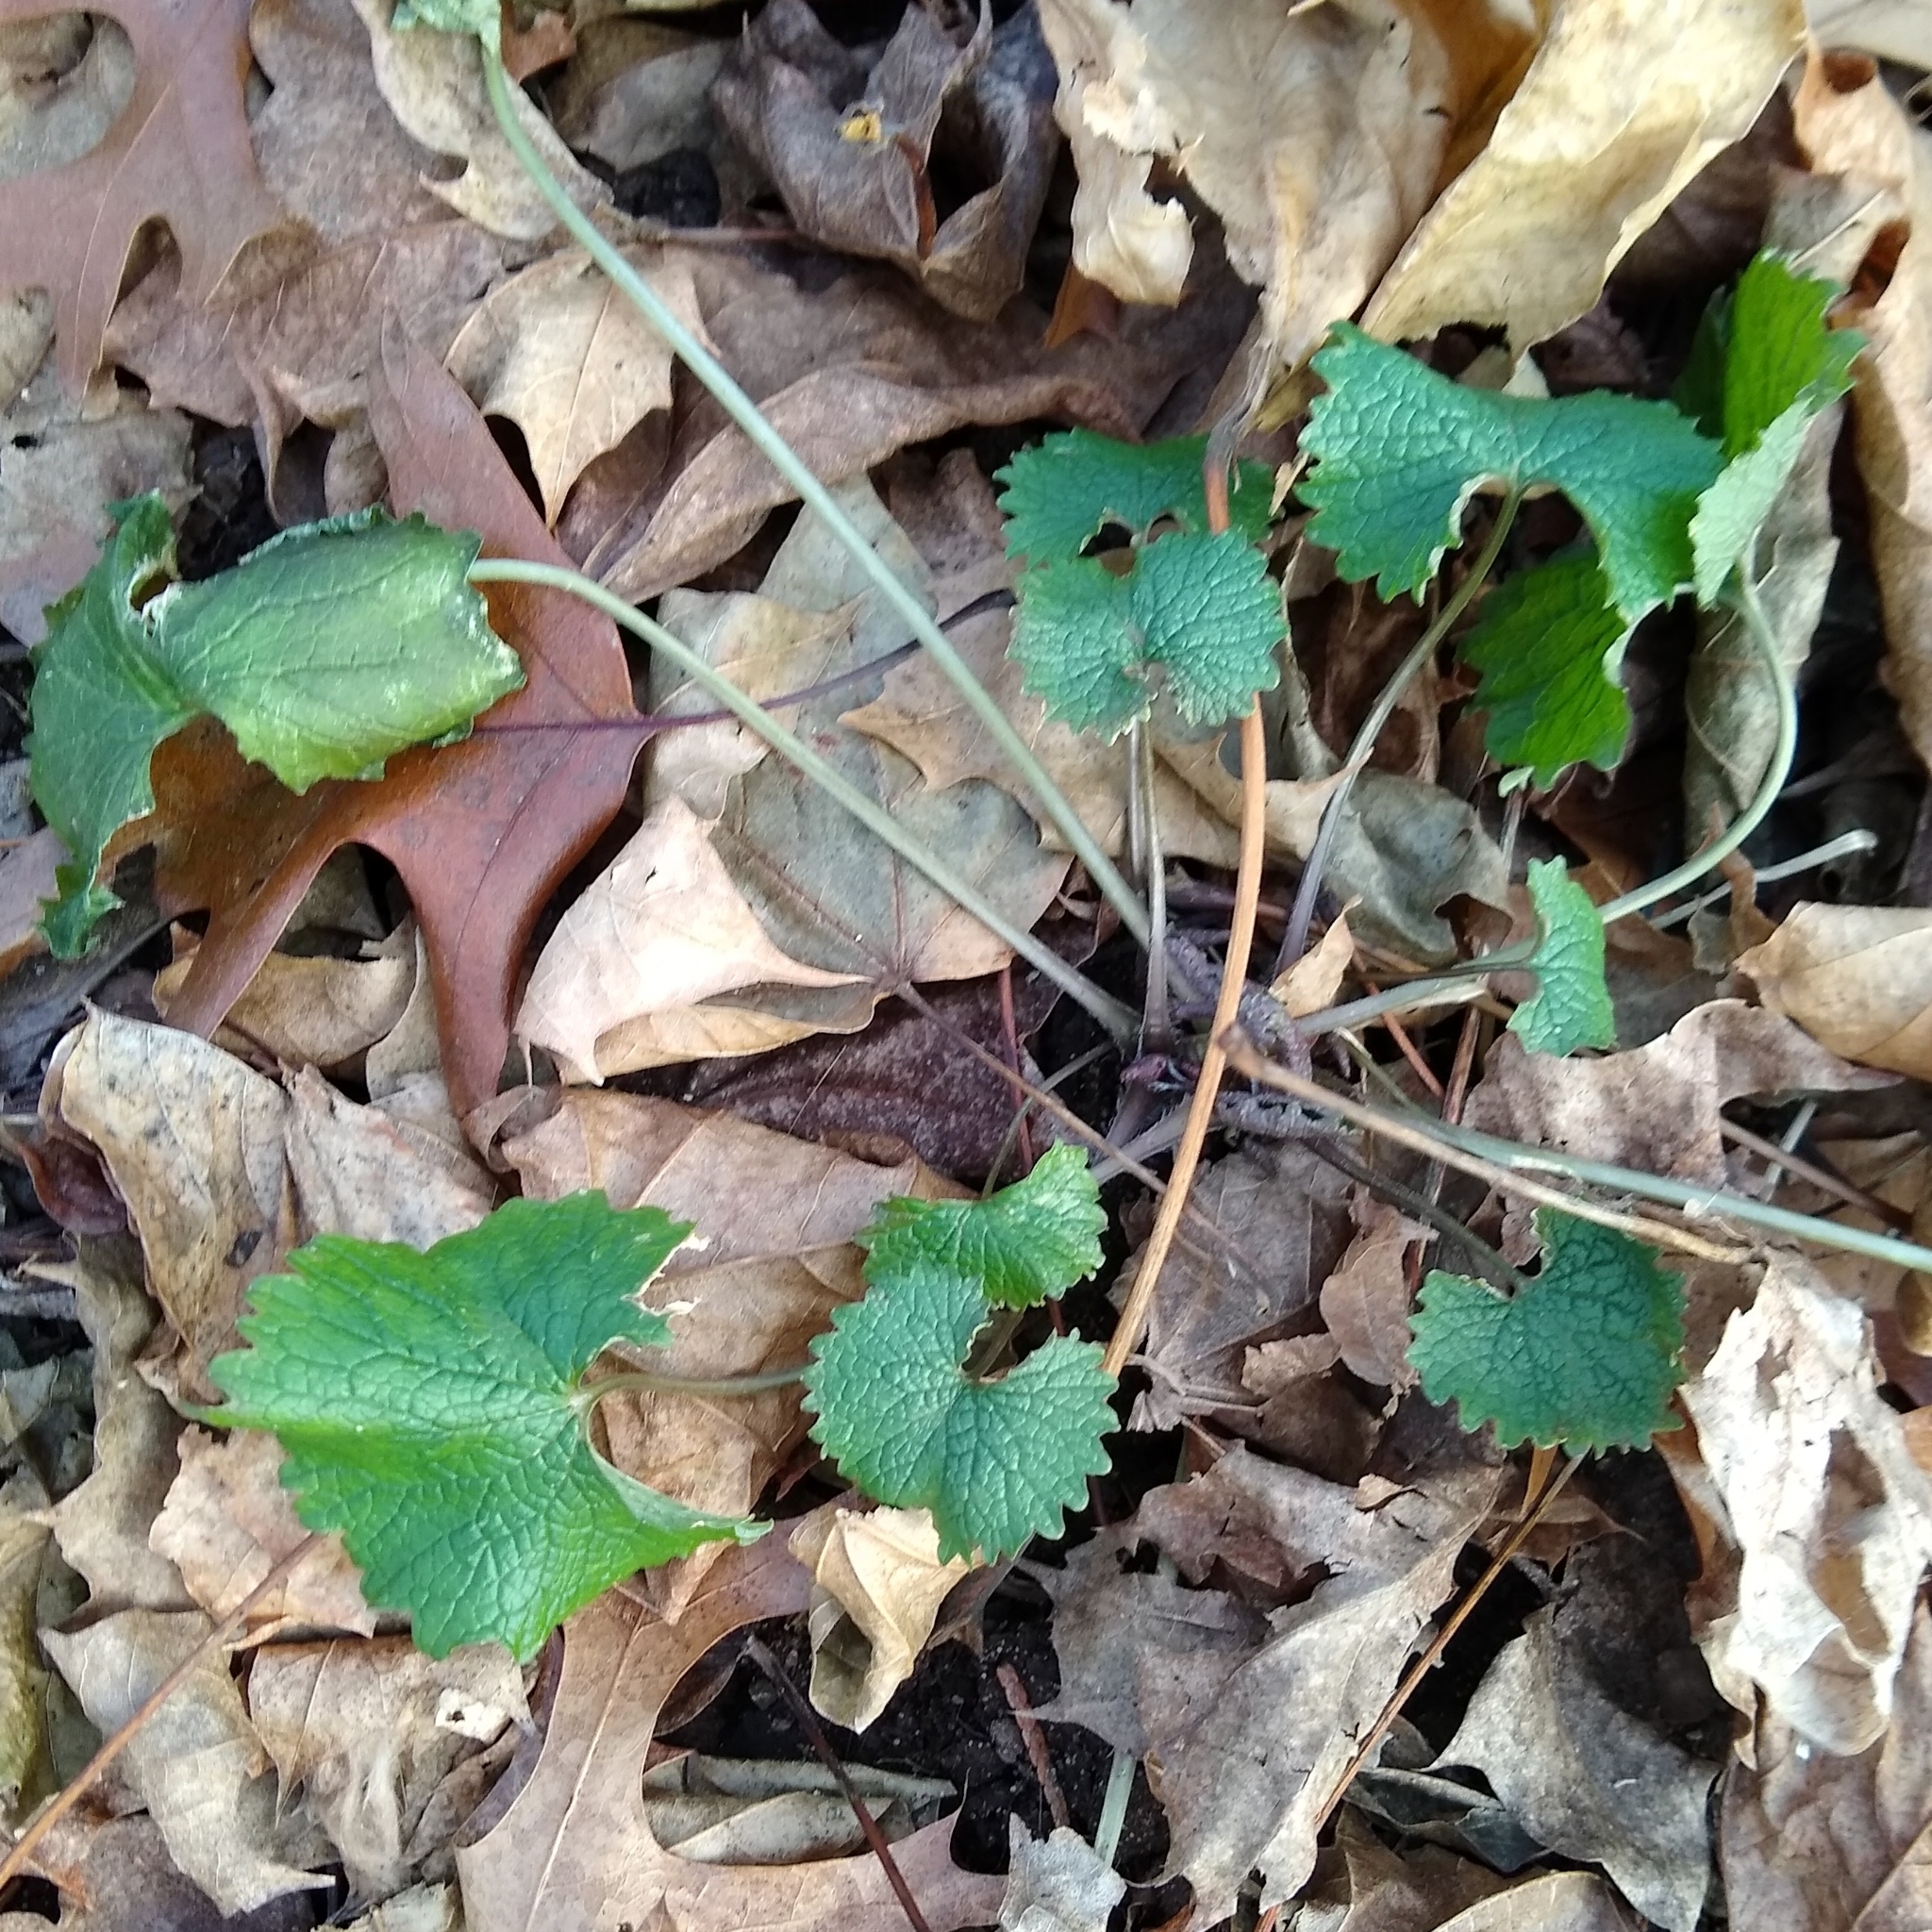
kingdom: Plantae
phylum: Tracheophyta
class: Magnoliopsida
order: Brassicales
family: Brassicaceae
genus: Alliaria
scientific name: Alliaria petiolata
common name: Garlic mustard
